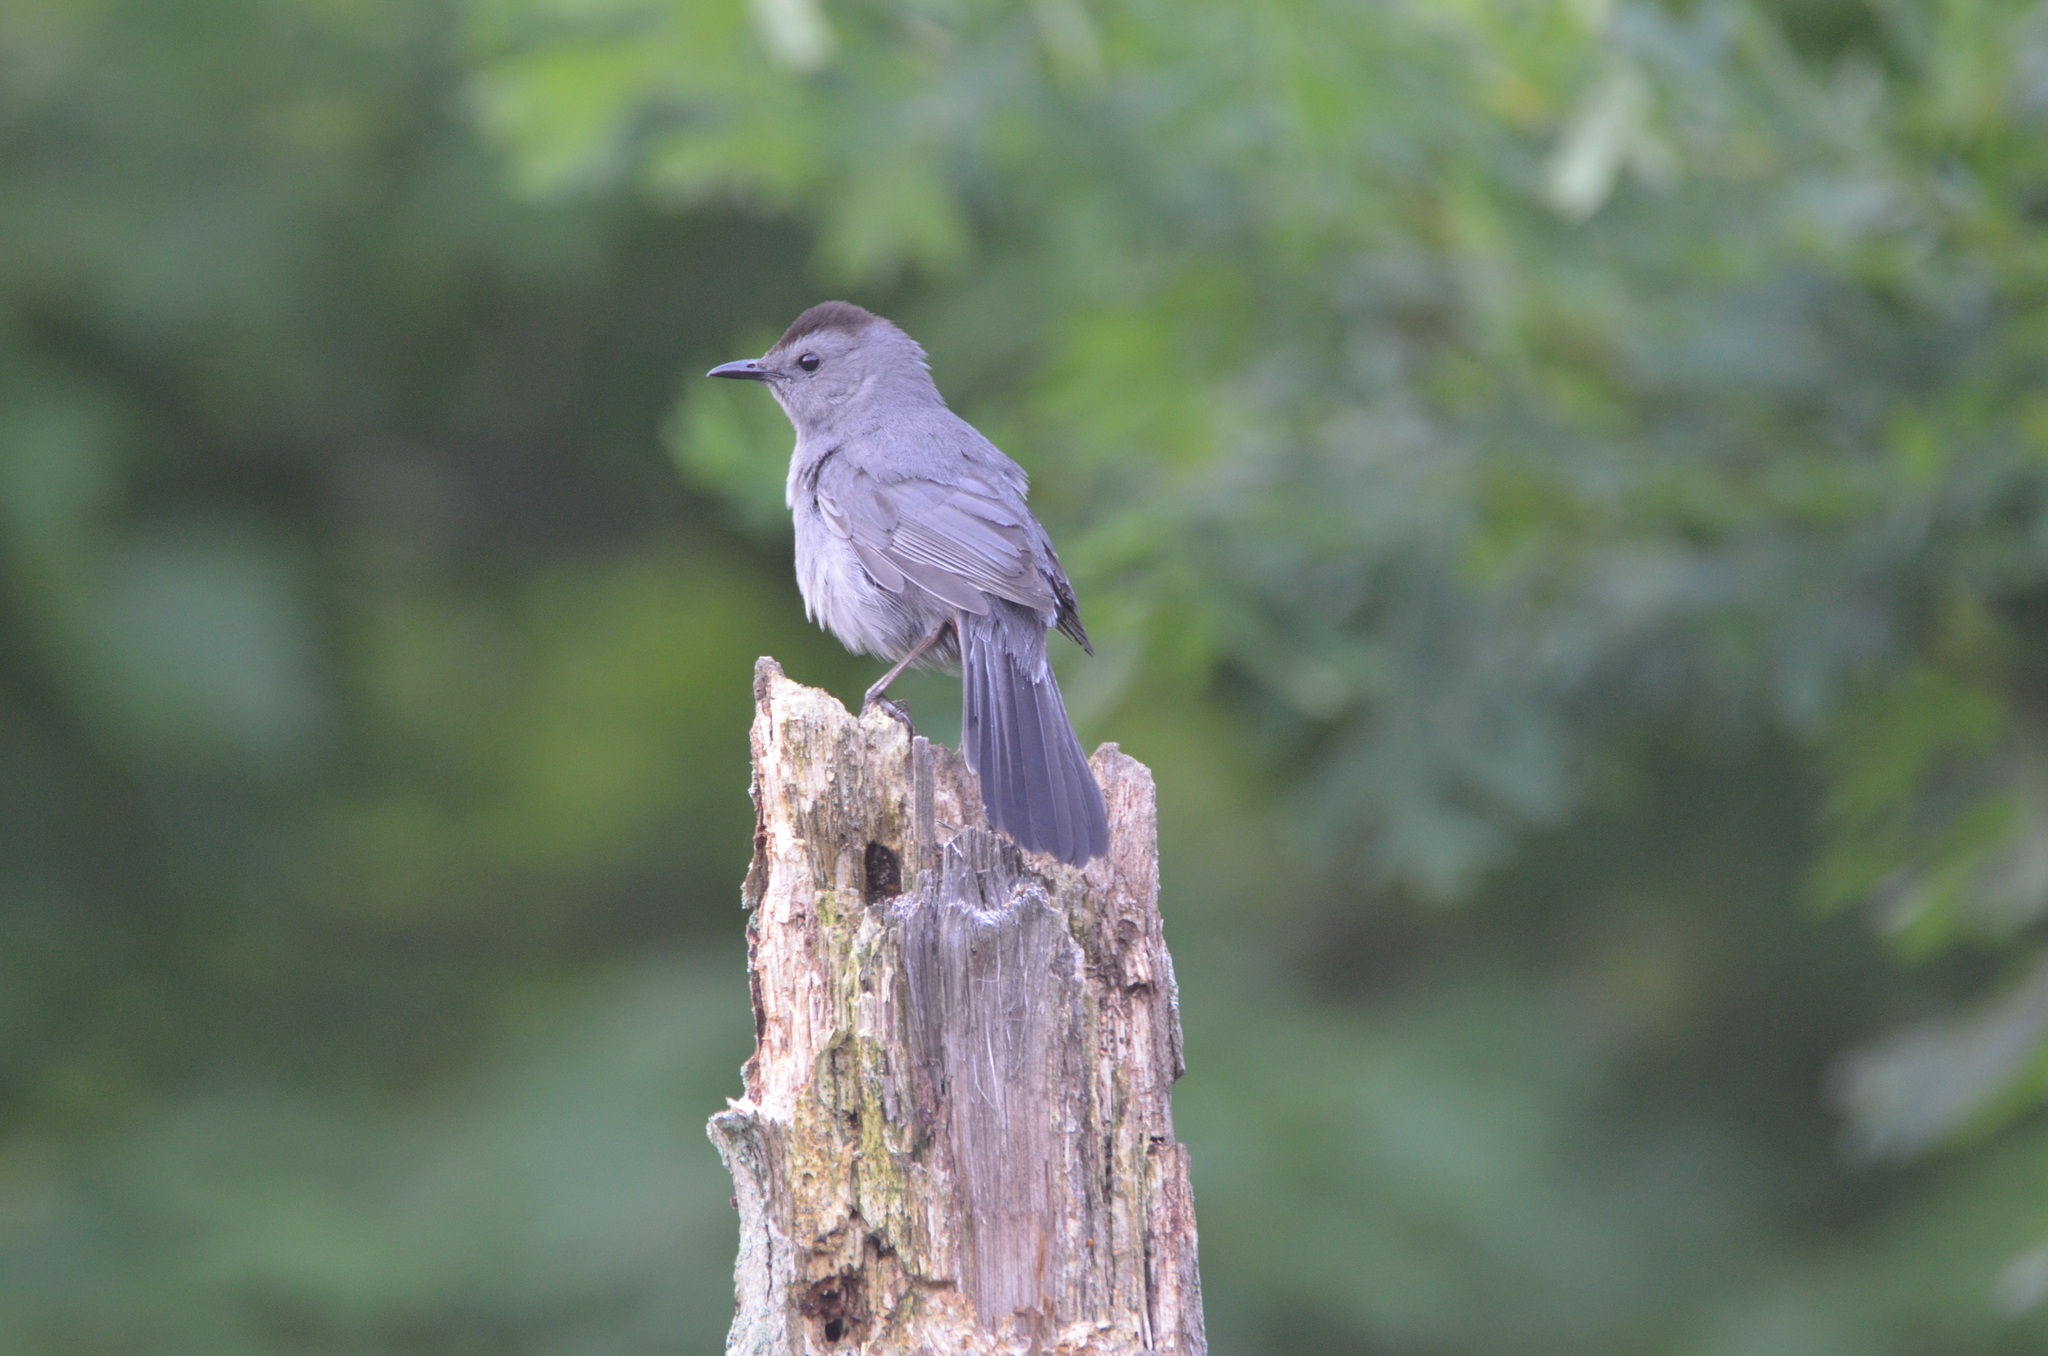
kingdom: Animalia
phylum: Chordata
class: Aves
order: Passeriformes
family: Mimidae
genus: Dumetella
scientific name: Dumetella carolinensis
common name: Gray catbird
